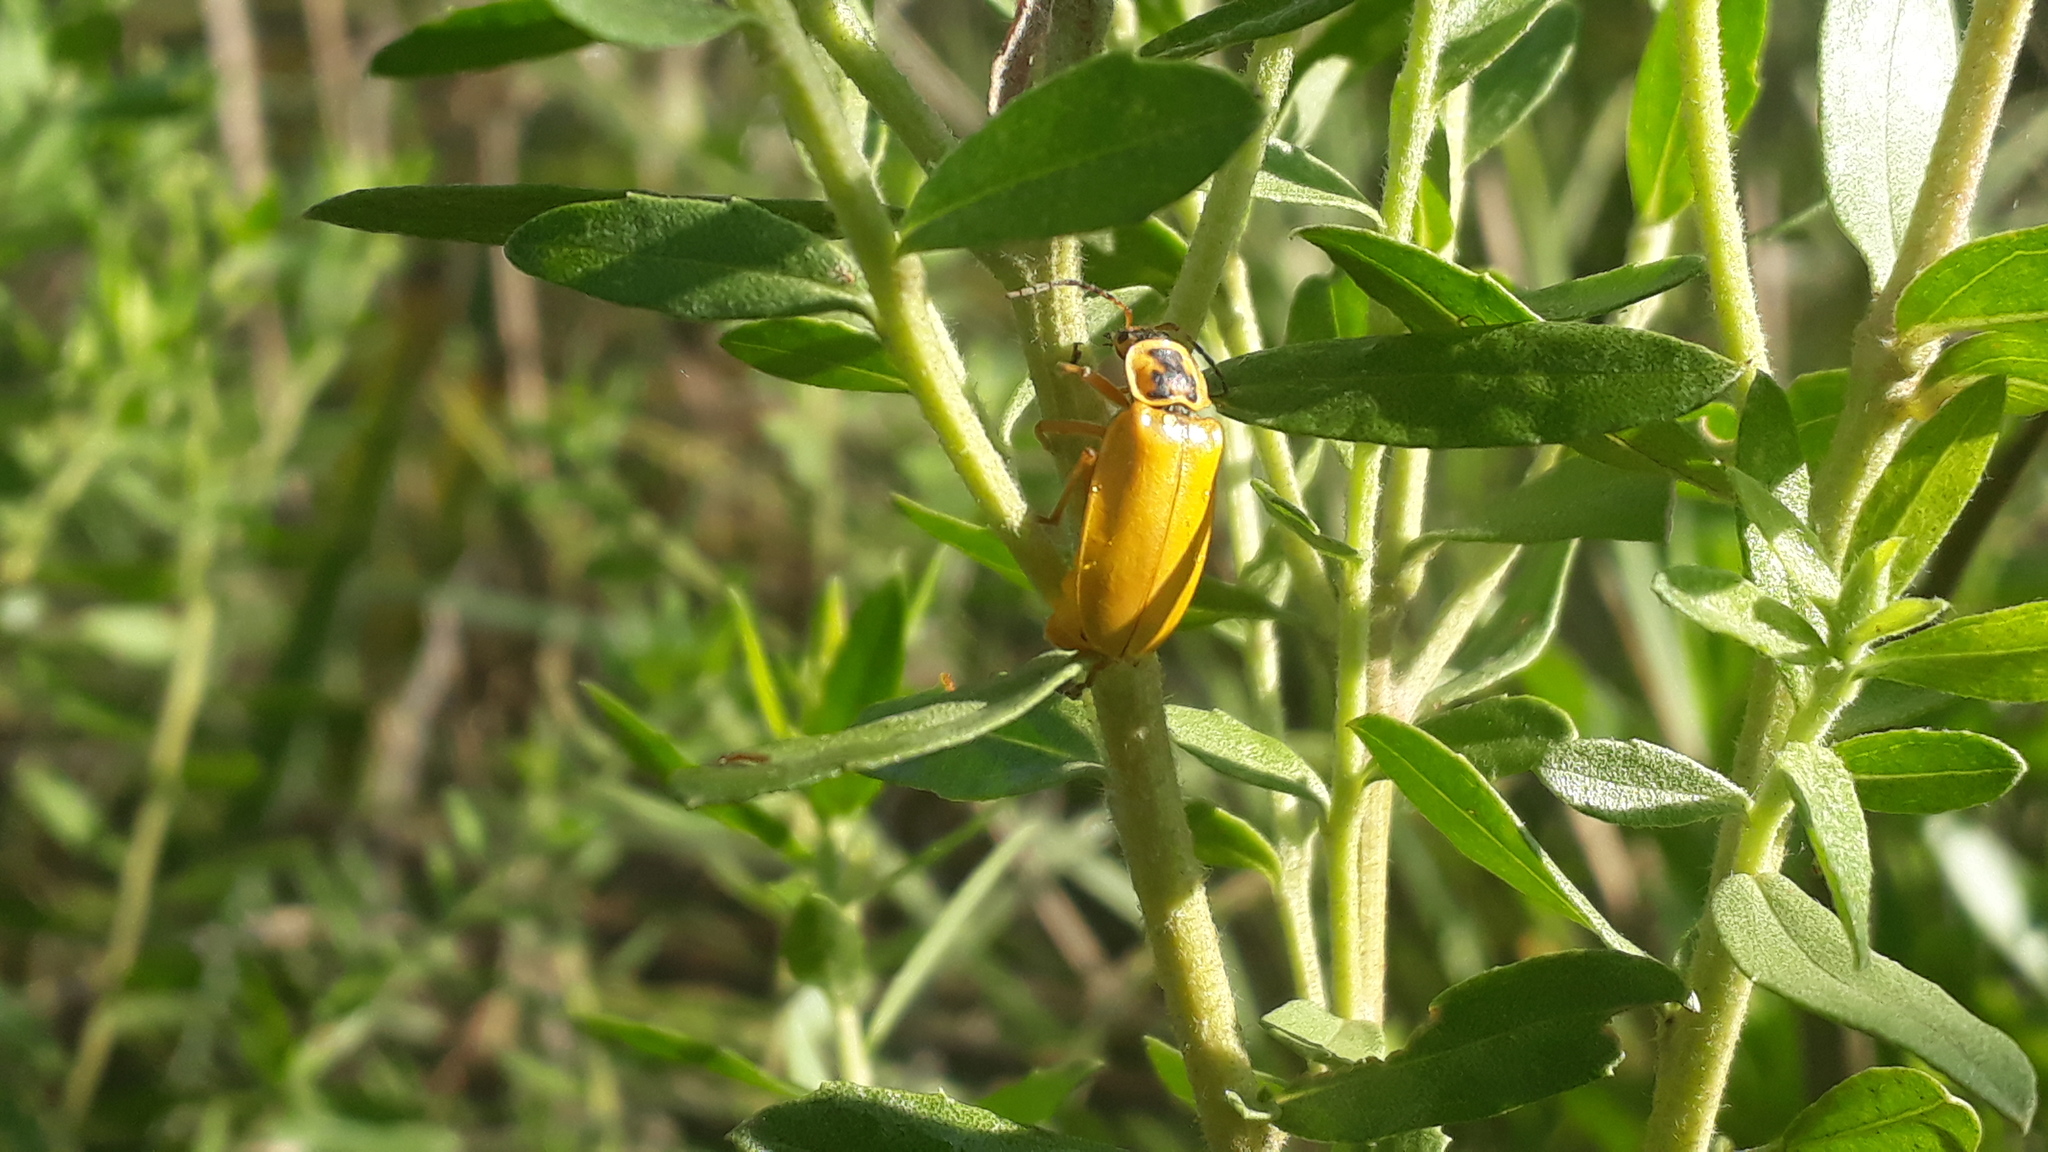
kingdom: Animalia
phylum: Arthropoda
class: Insecta
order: Coleoptera
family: Cantharidae
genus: Chauliognathus
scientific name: Chauliognathus
